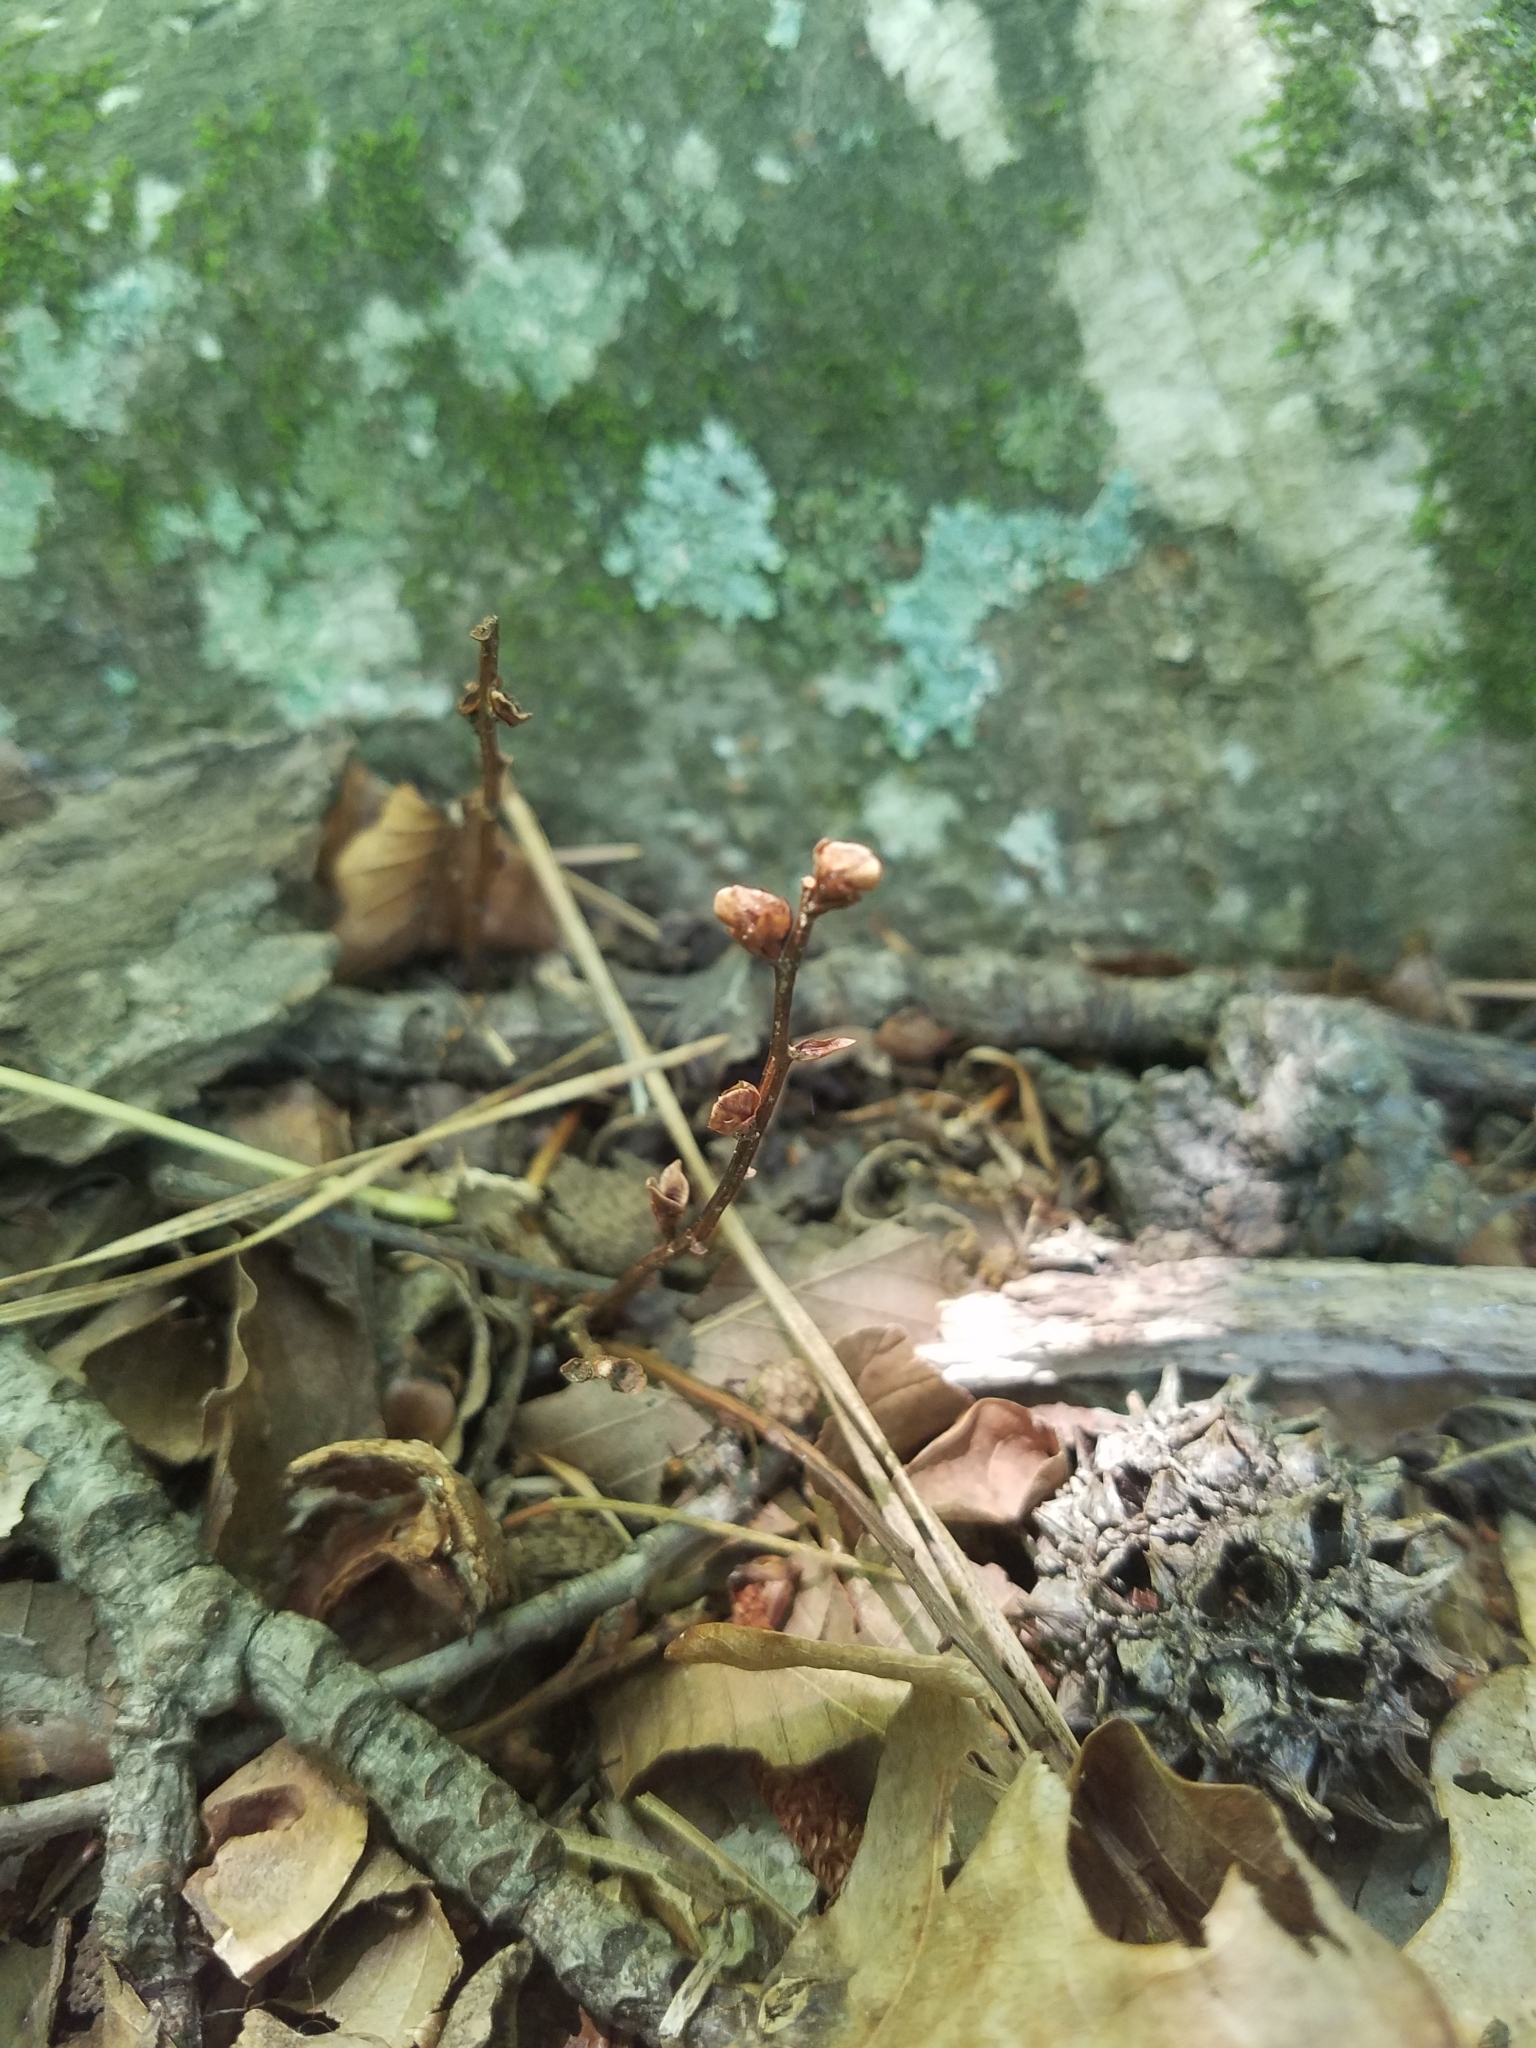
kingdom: Plantae
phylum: Tracheophyta
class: Magnoliopsida
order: Lamiales
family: Orobanchaceae
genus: Epifagus
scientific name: Epifagus virginiana
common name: Beechdrops
